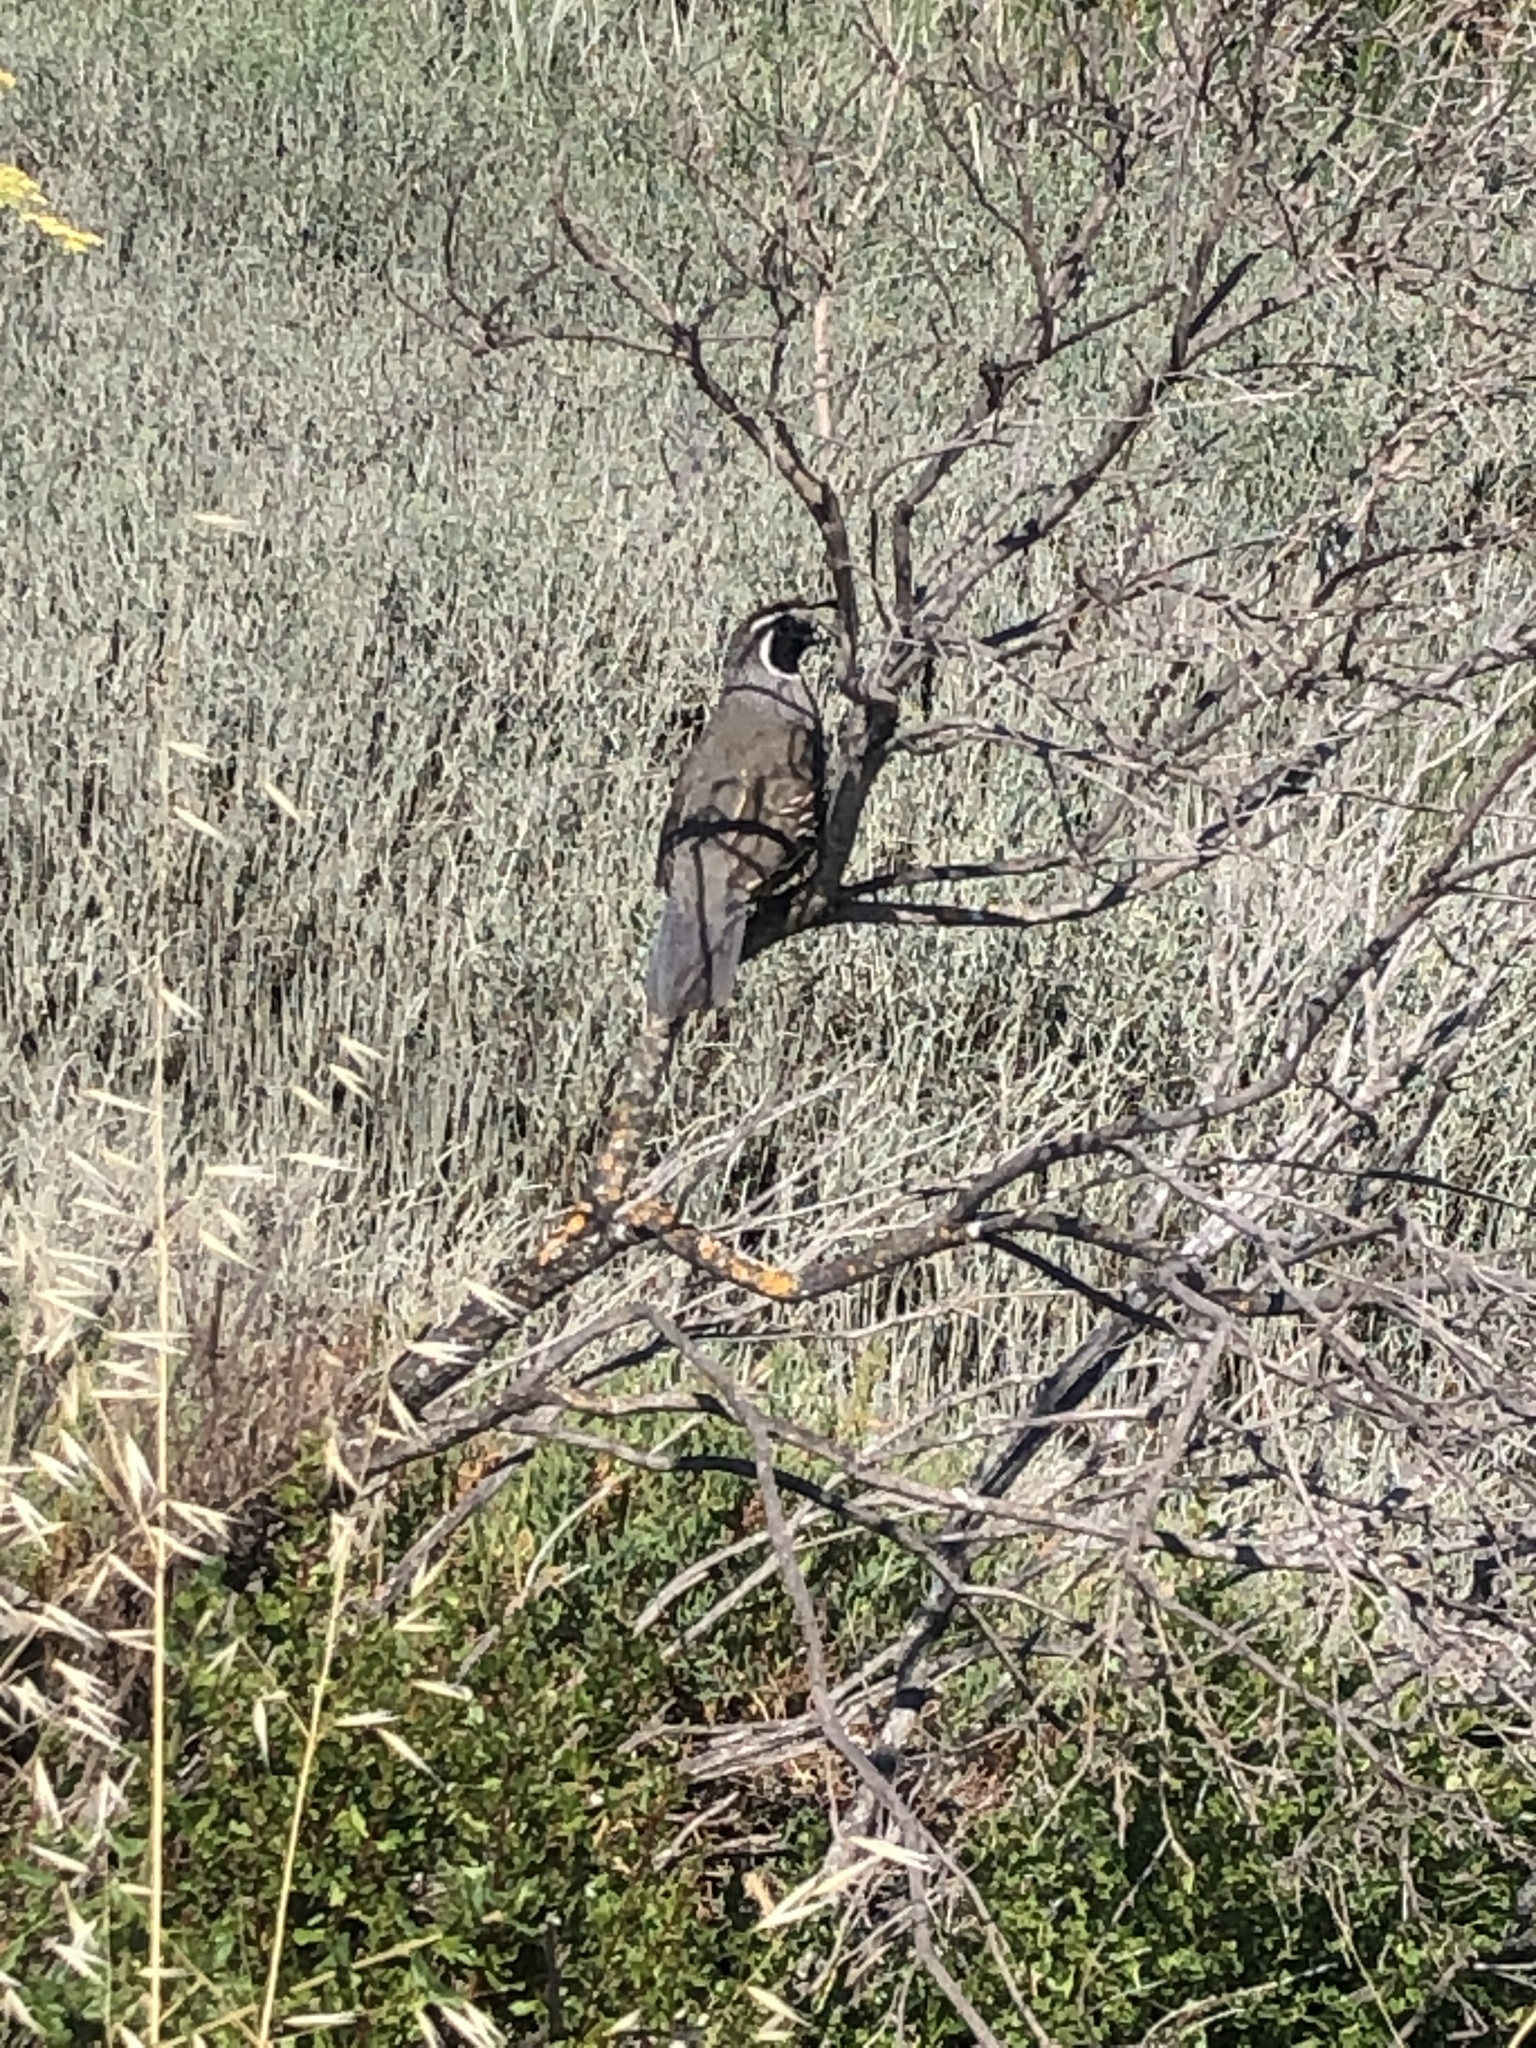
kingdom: Animalia
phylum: Chordata
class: Aves
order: Galliformes
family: Odontophoridae
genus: Callipepla
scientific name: Callipepla californica
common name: California quail
